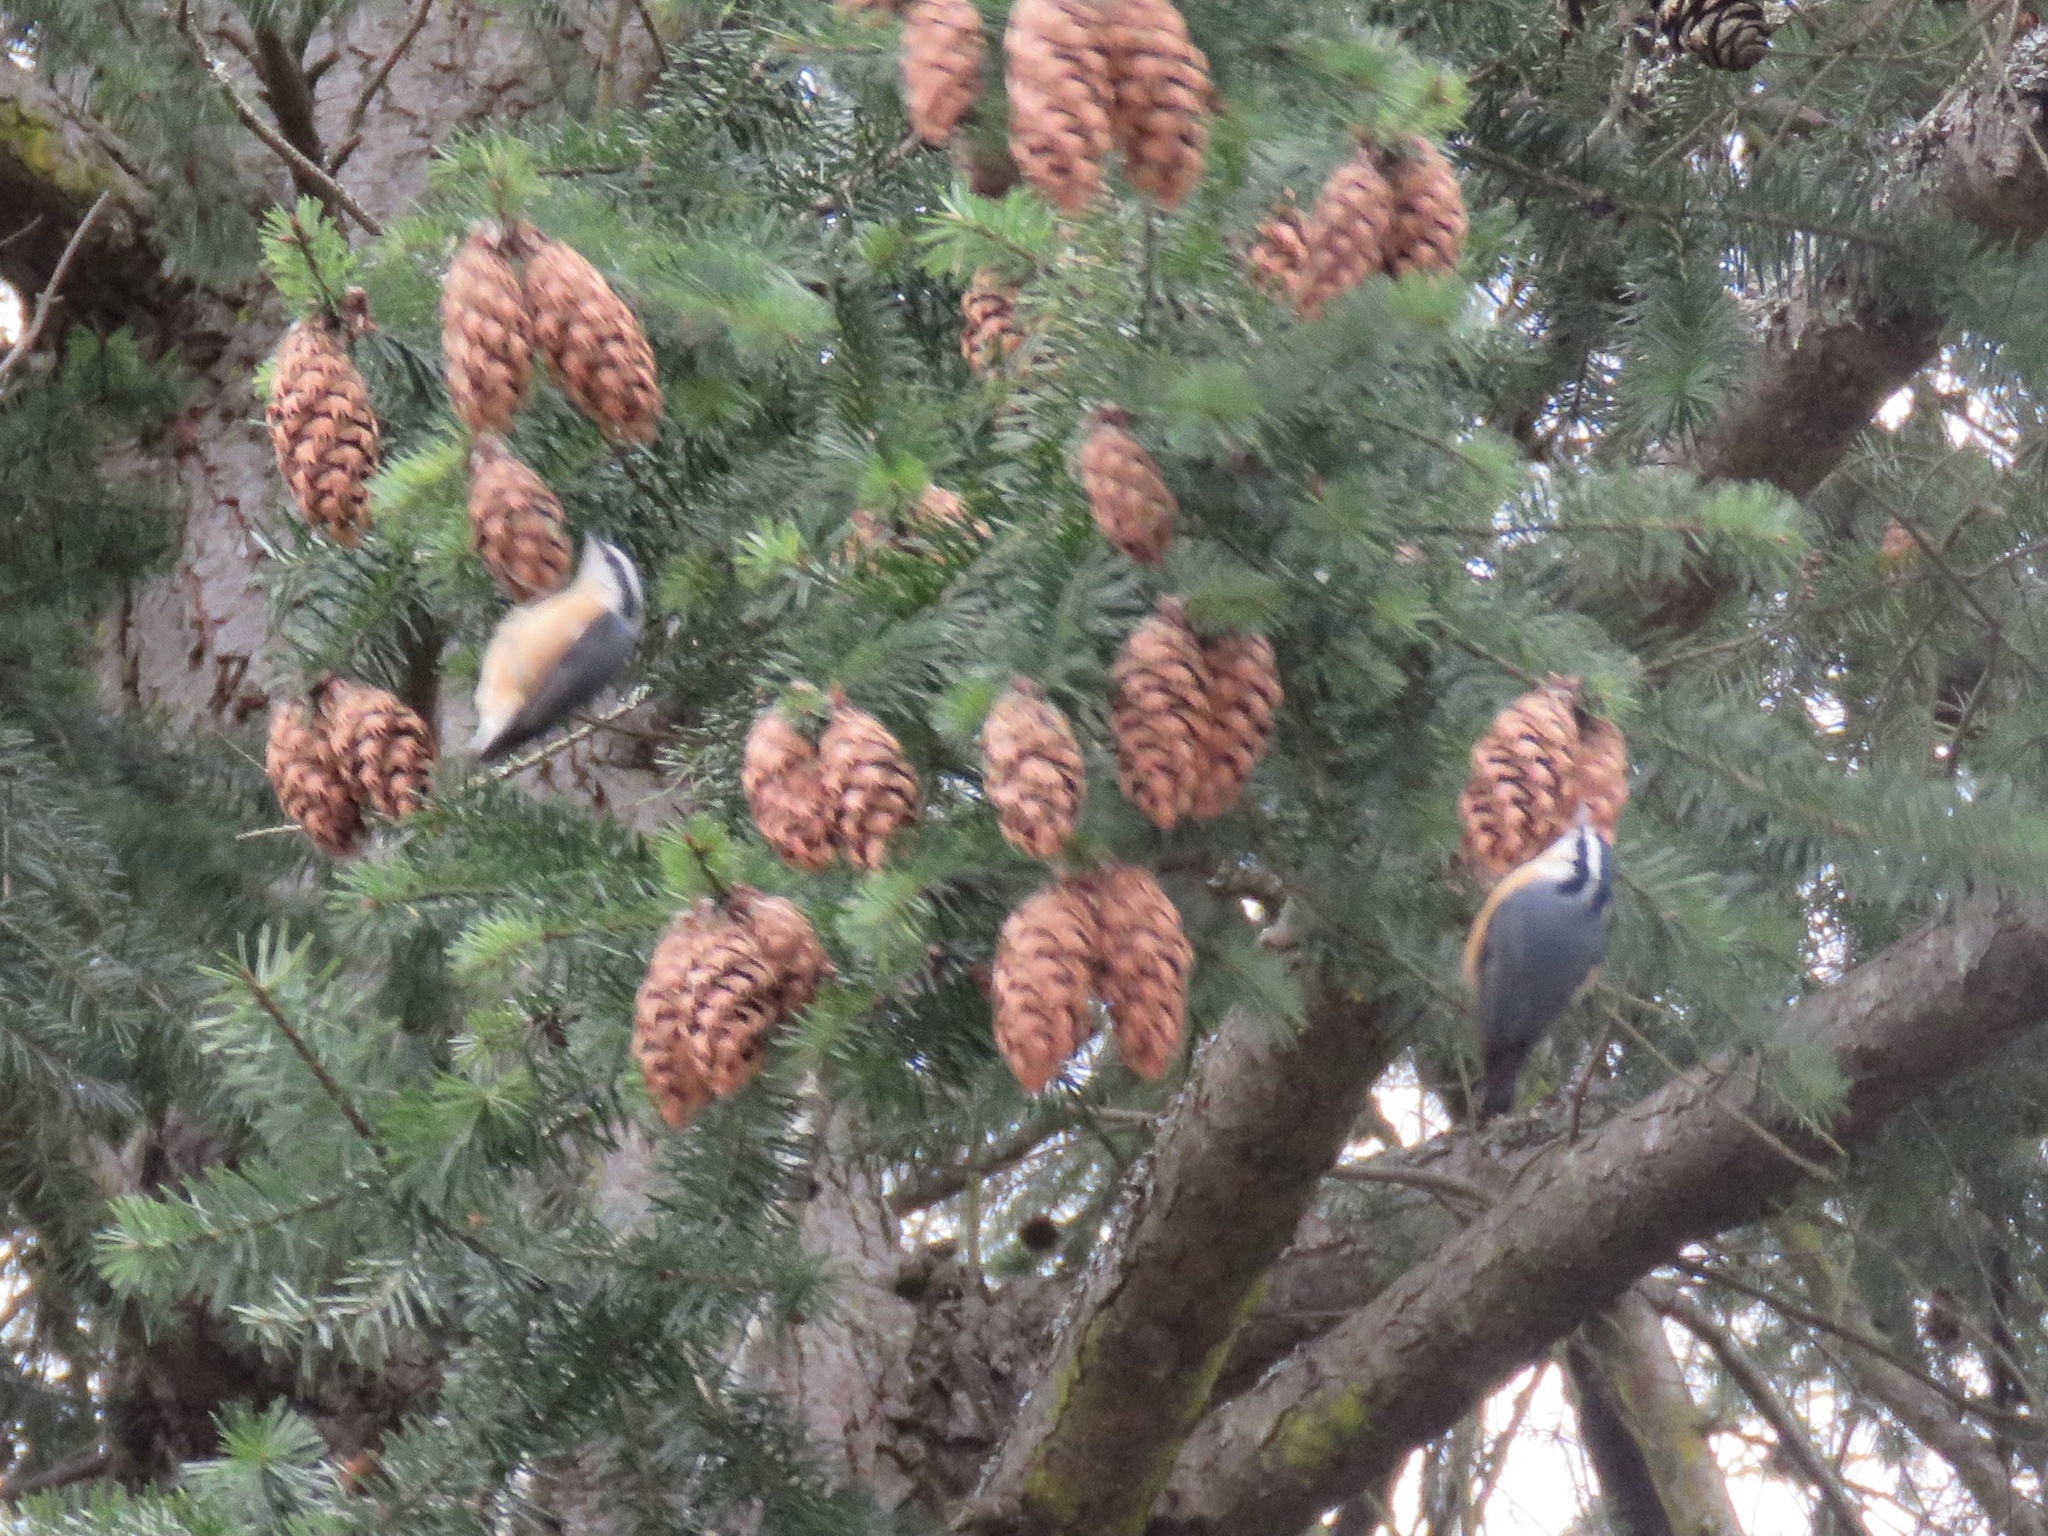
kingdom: Animalia
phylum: Chordata
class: Aves
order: Passeriformes
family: Sittidae
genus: Sitta
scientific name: Sitta canadensis
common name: Red-breasted nuthatch
